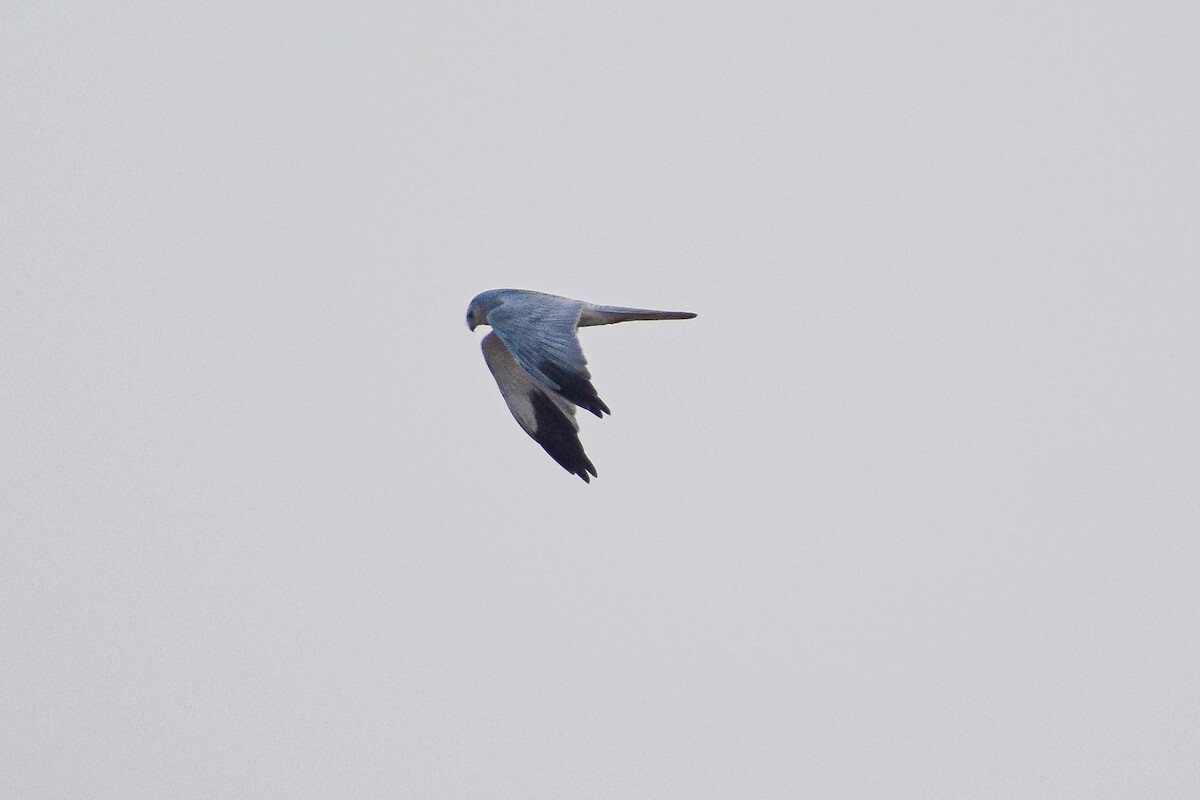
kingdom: Animalia
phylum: Chordata
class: Aves
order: Accipitriformes
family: Accipitridae
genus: Circus
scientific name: Circus macrourus
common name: Pallid harrier
